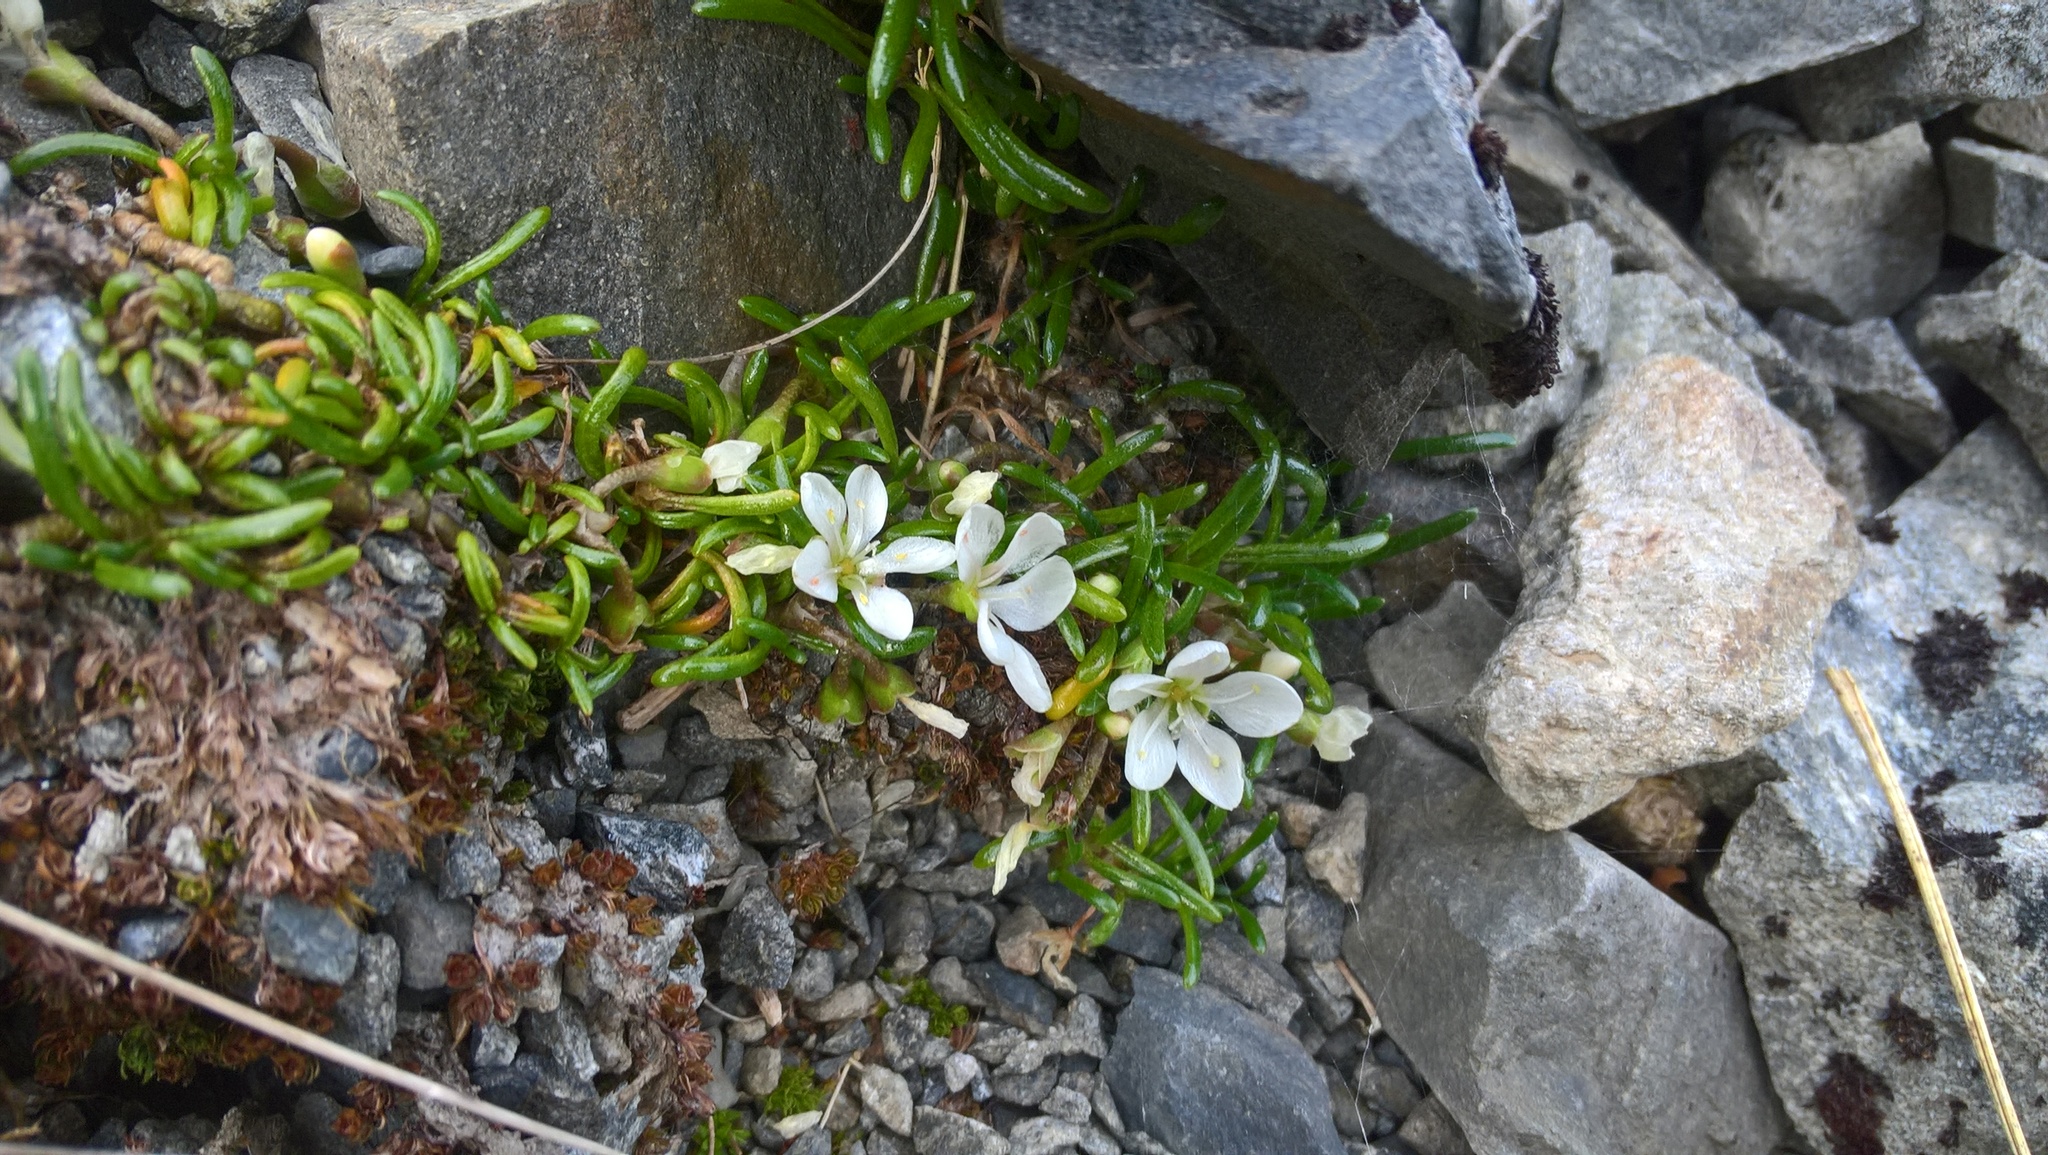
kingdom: Plantae
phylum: Tracheophyta
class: Magnoliopsida
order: Caryophyllales
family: Montiaceae
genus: Montia
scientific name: Montia sessiliflora
